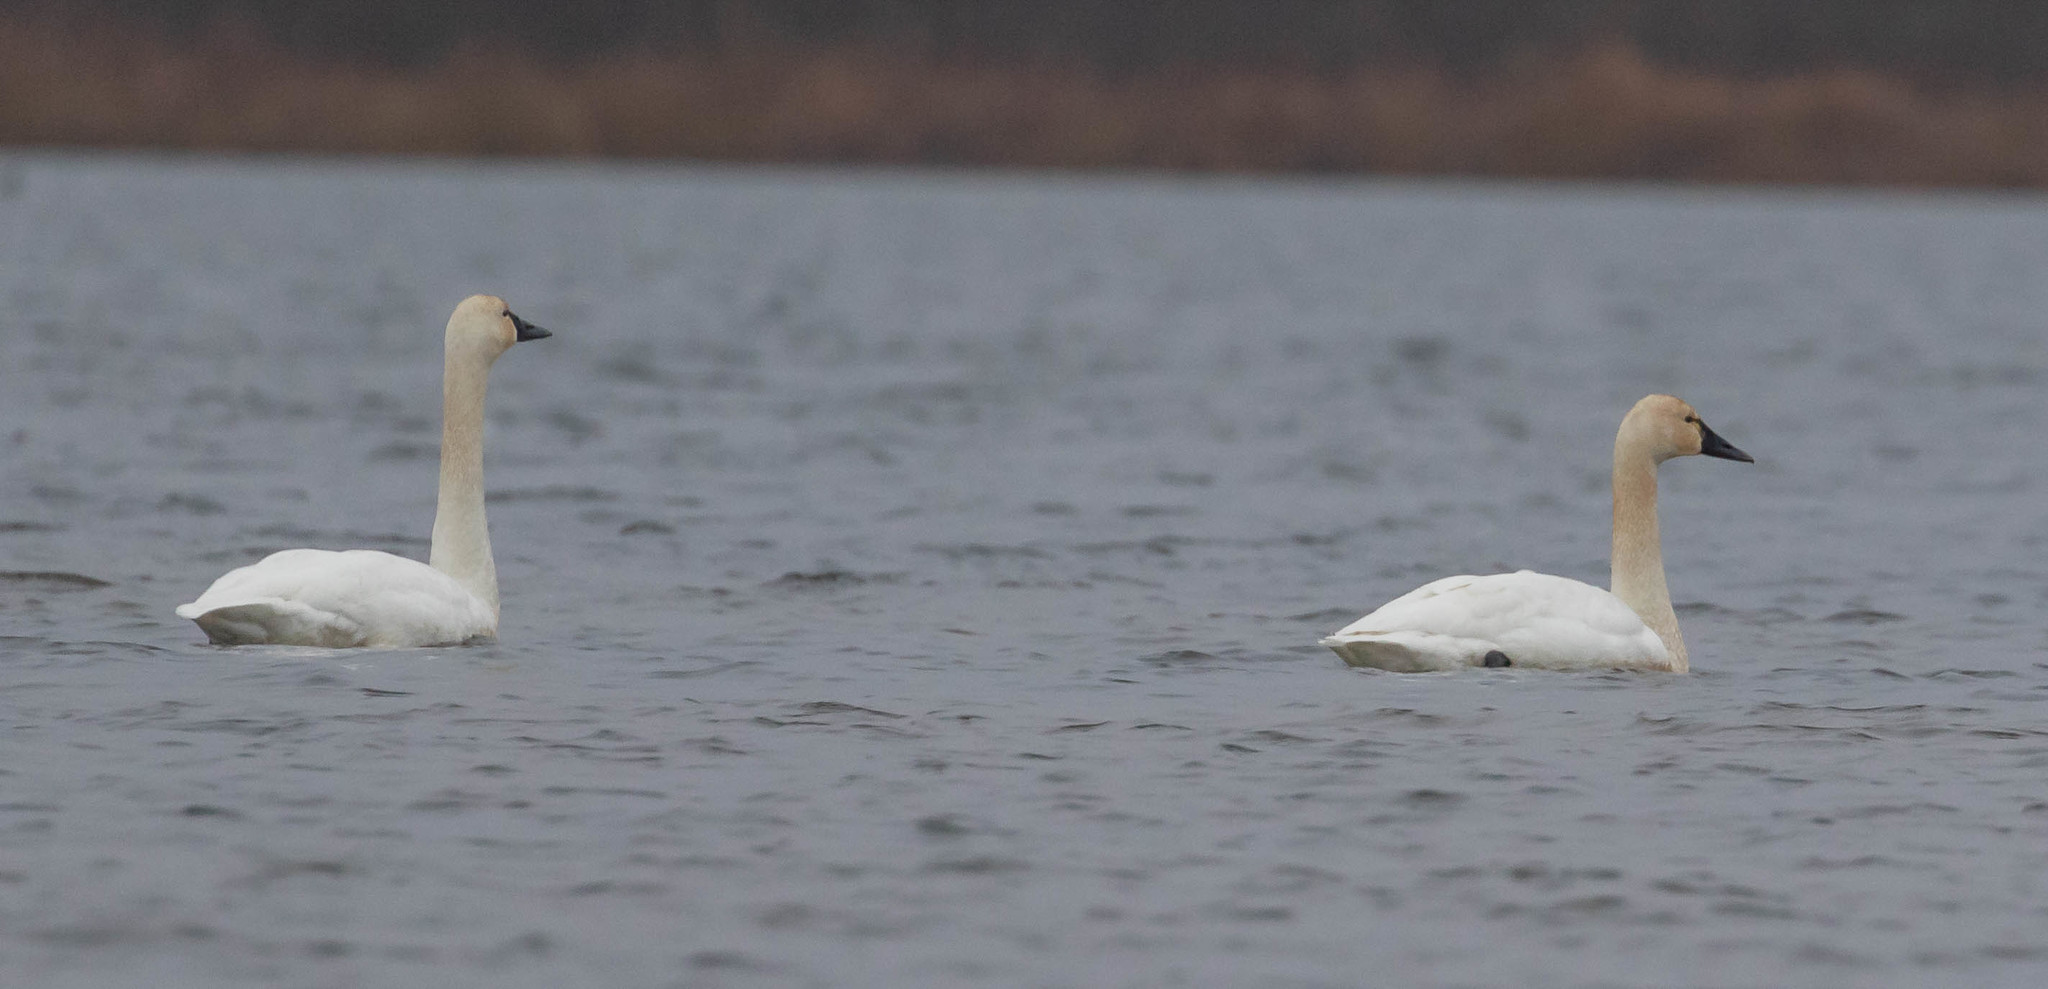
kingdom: Animalia
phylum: Chordata
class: Aves
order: Anseriformes
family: Anatidae
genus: Cygnus
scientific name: Cygnus columbianus
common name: Tundra swan
